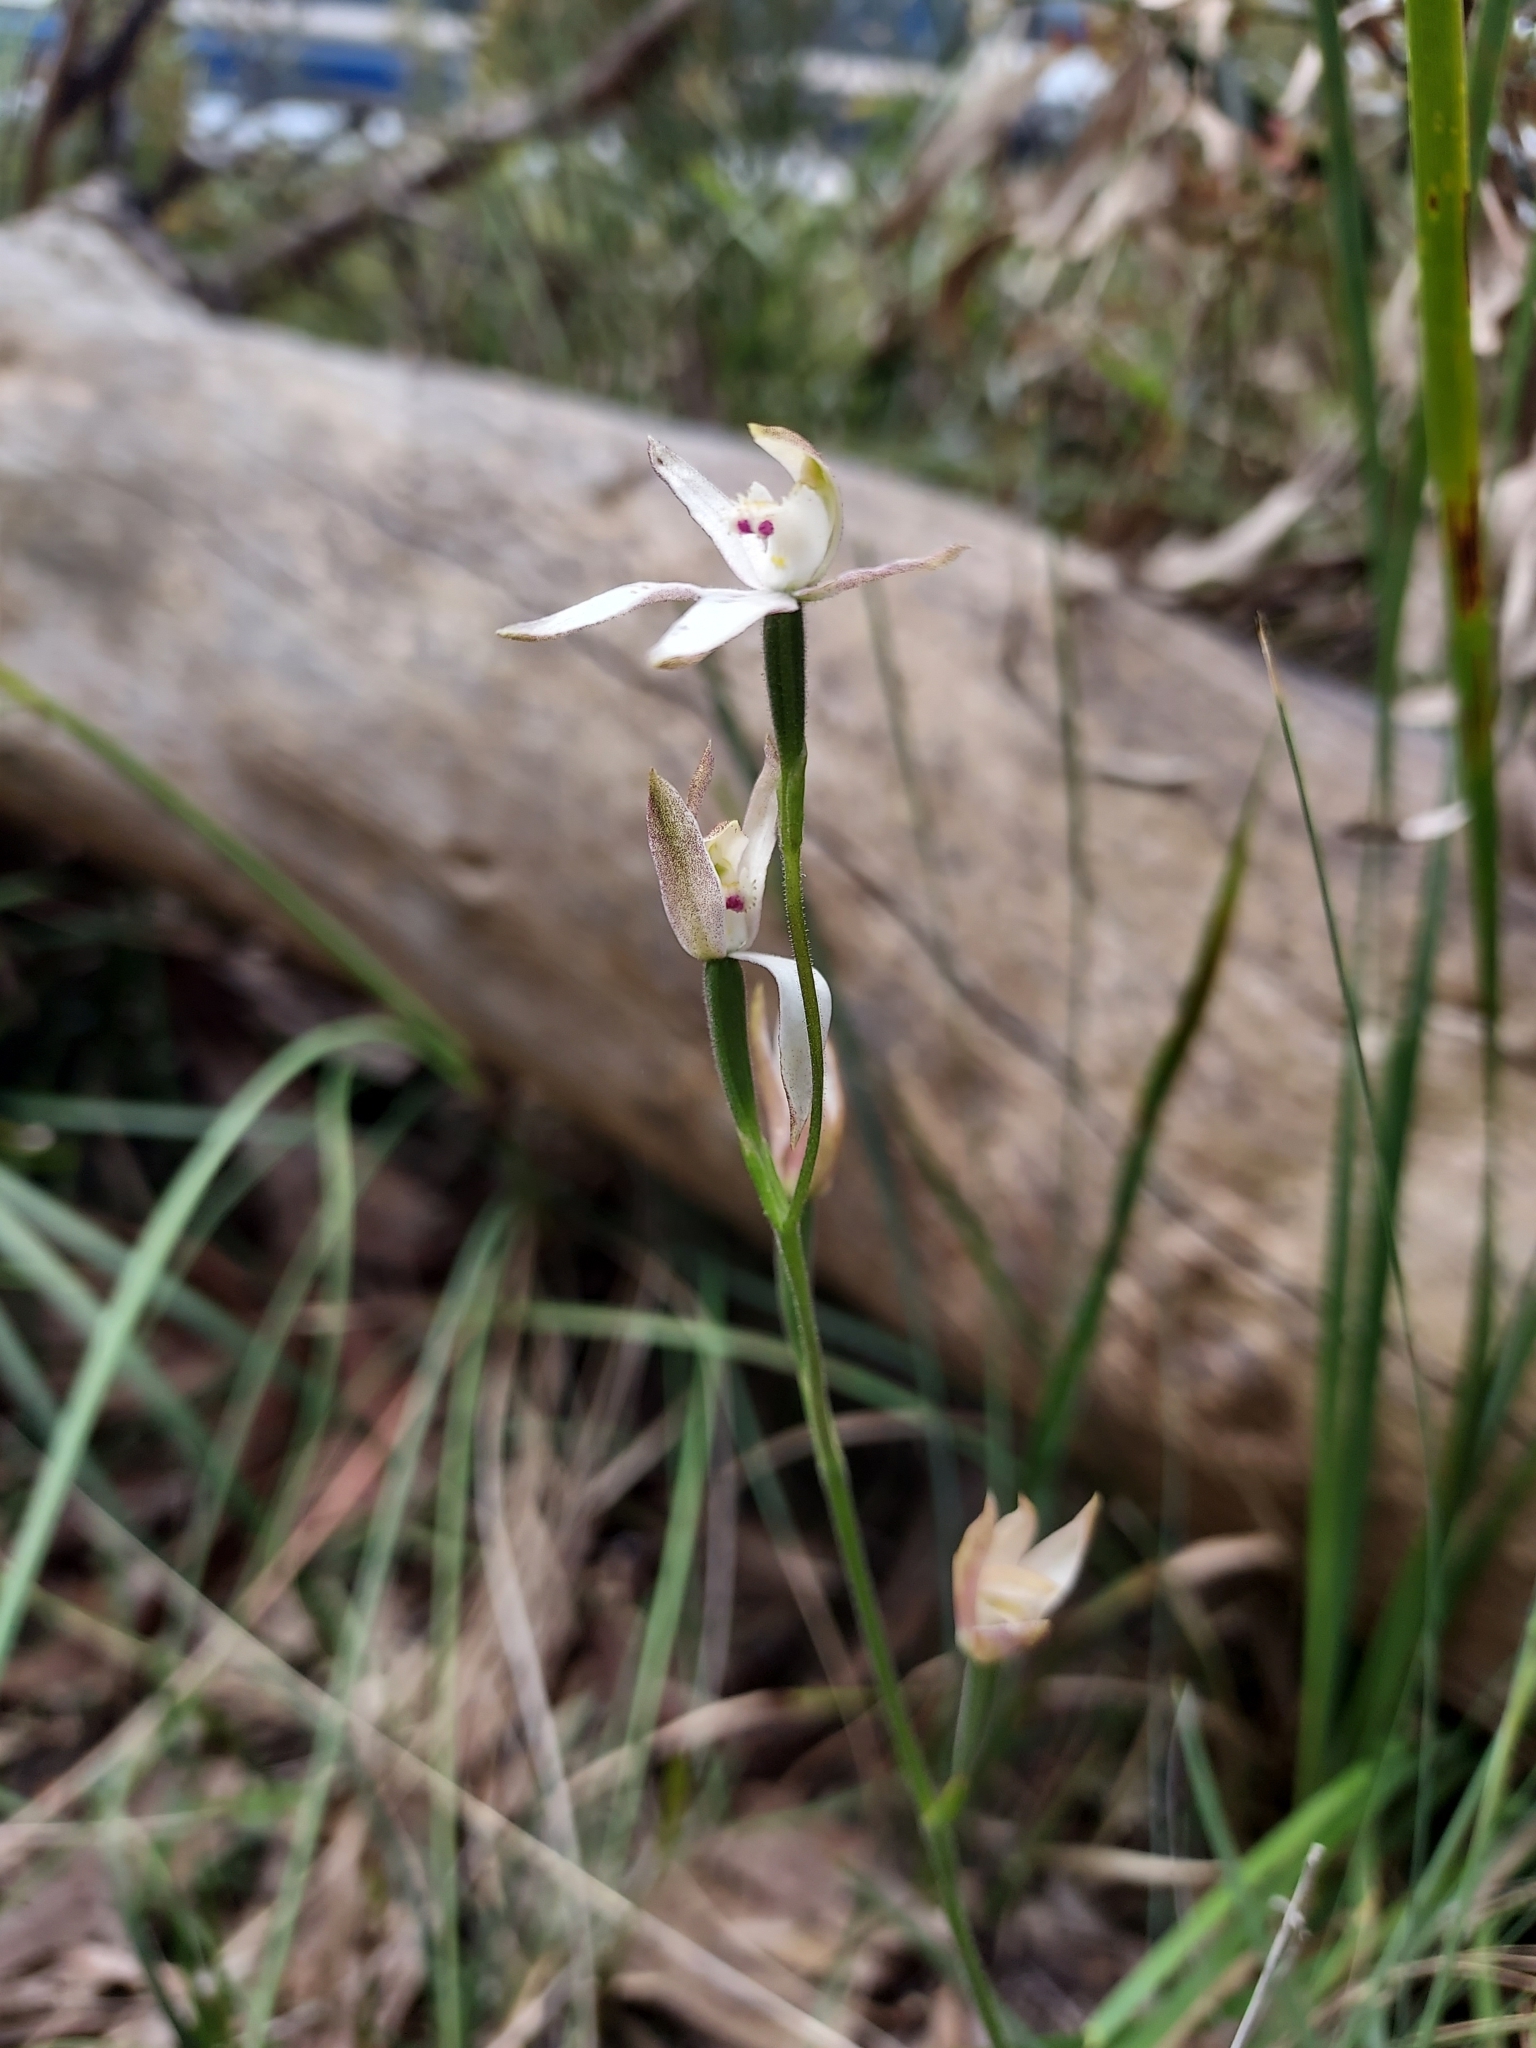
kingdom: Plantae
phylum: Tracheophyta
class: Liliopsida
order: Asparagales
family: Orchidaceae
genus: Caladenia
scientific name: Caladenia moschata
